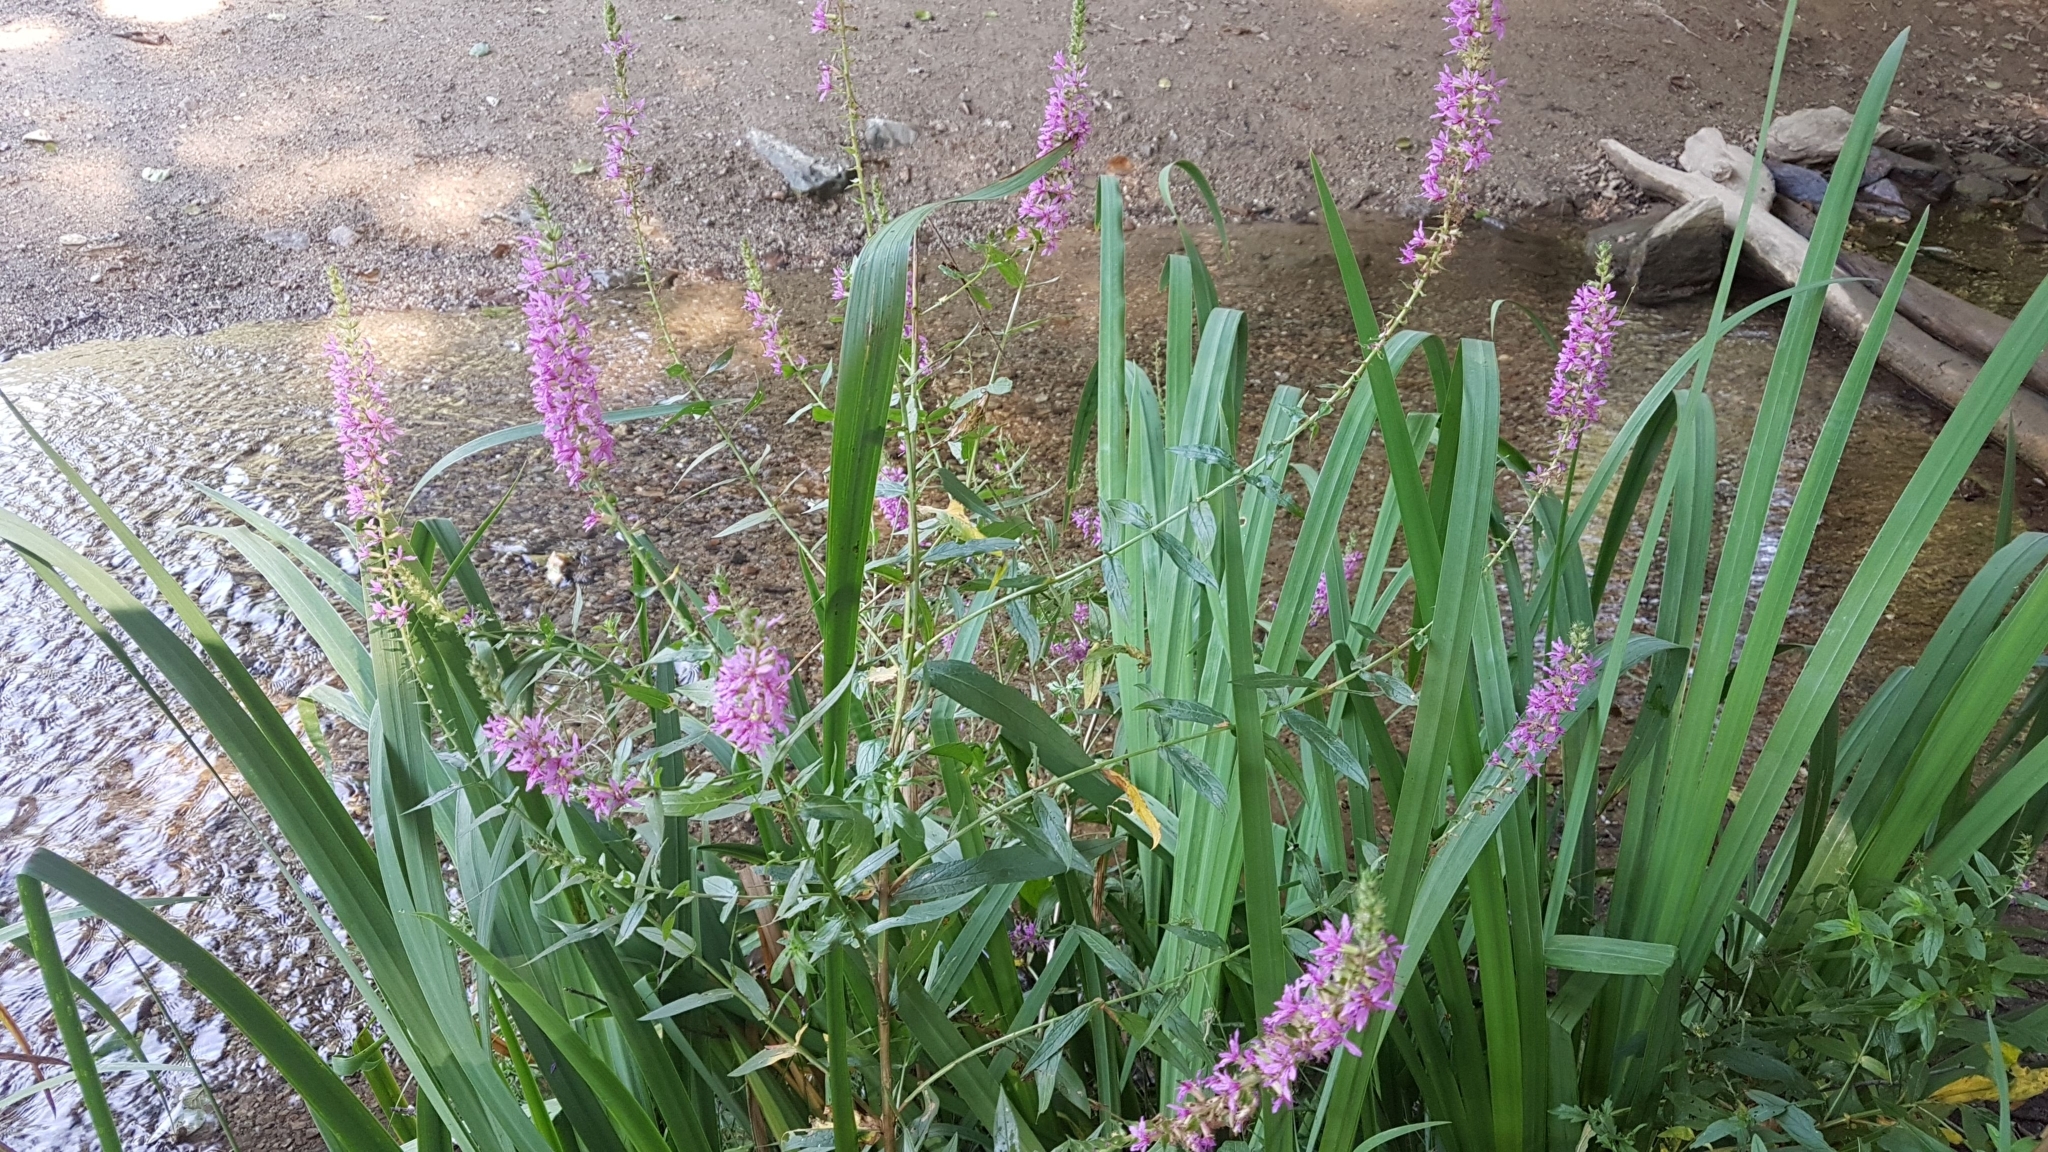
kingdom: Plantae
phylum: Tracheophyta
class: Magnoliopsida
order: Myrtales
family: Lythraceae
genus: Lythrum
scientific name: Lythrum salicaria
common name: Purple loosestrife
